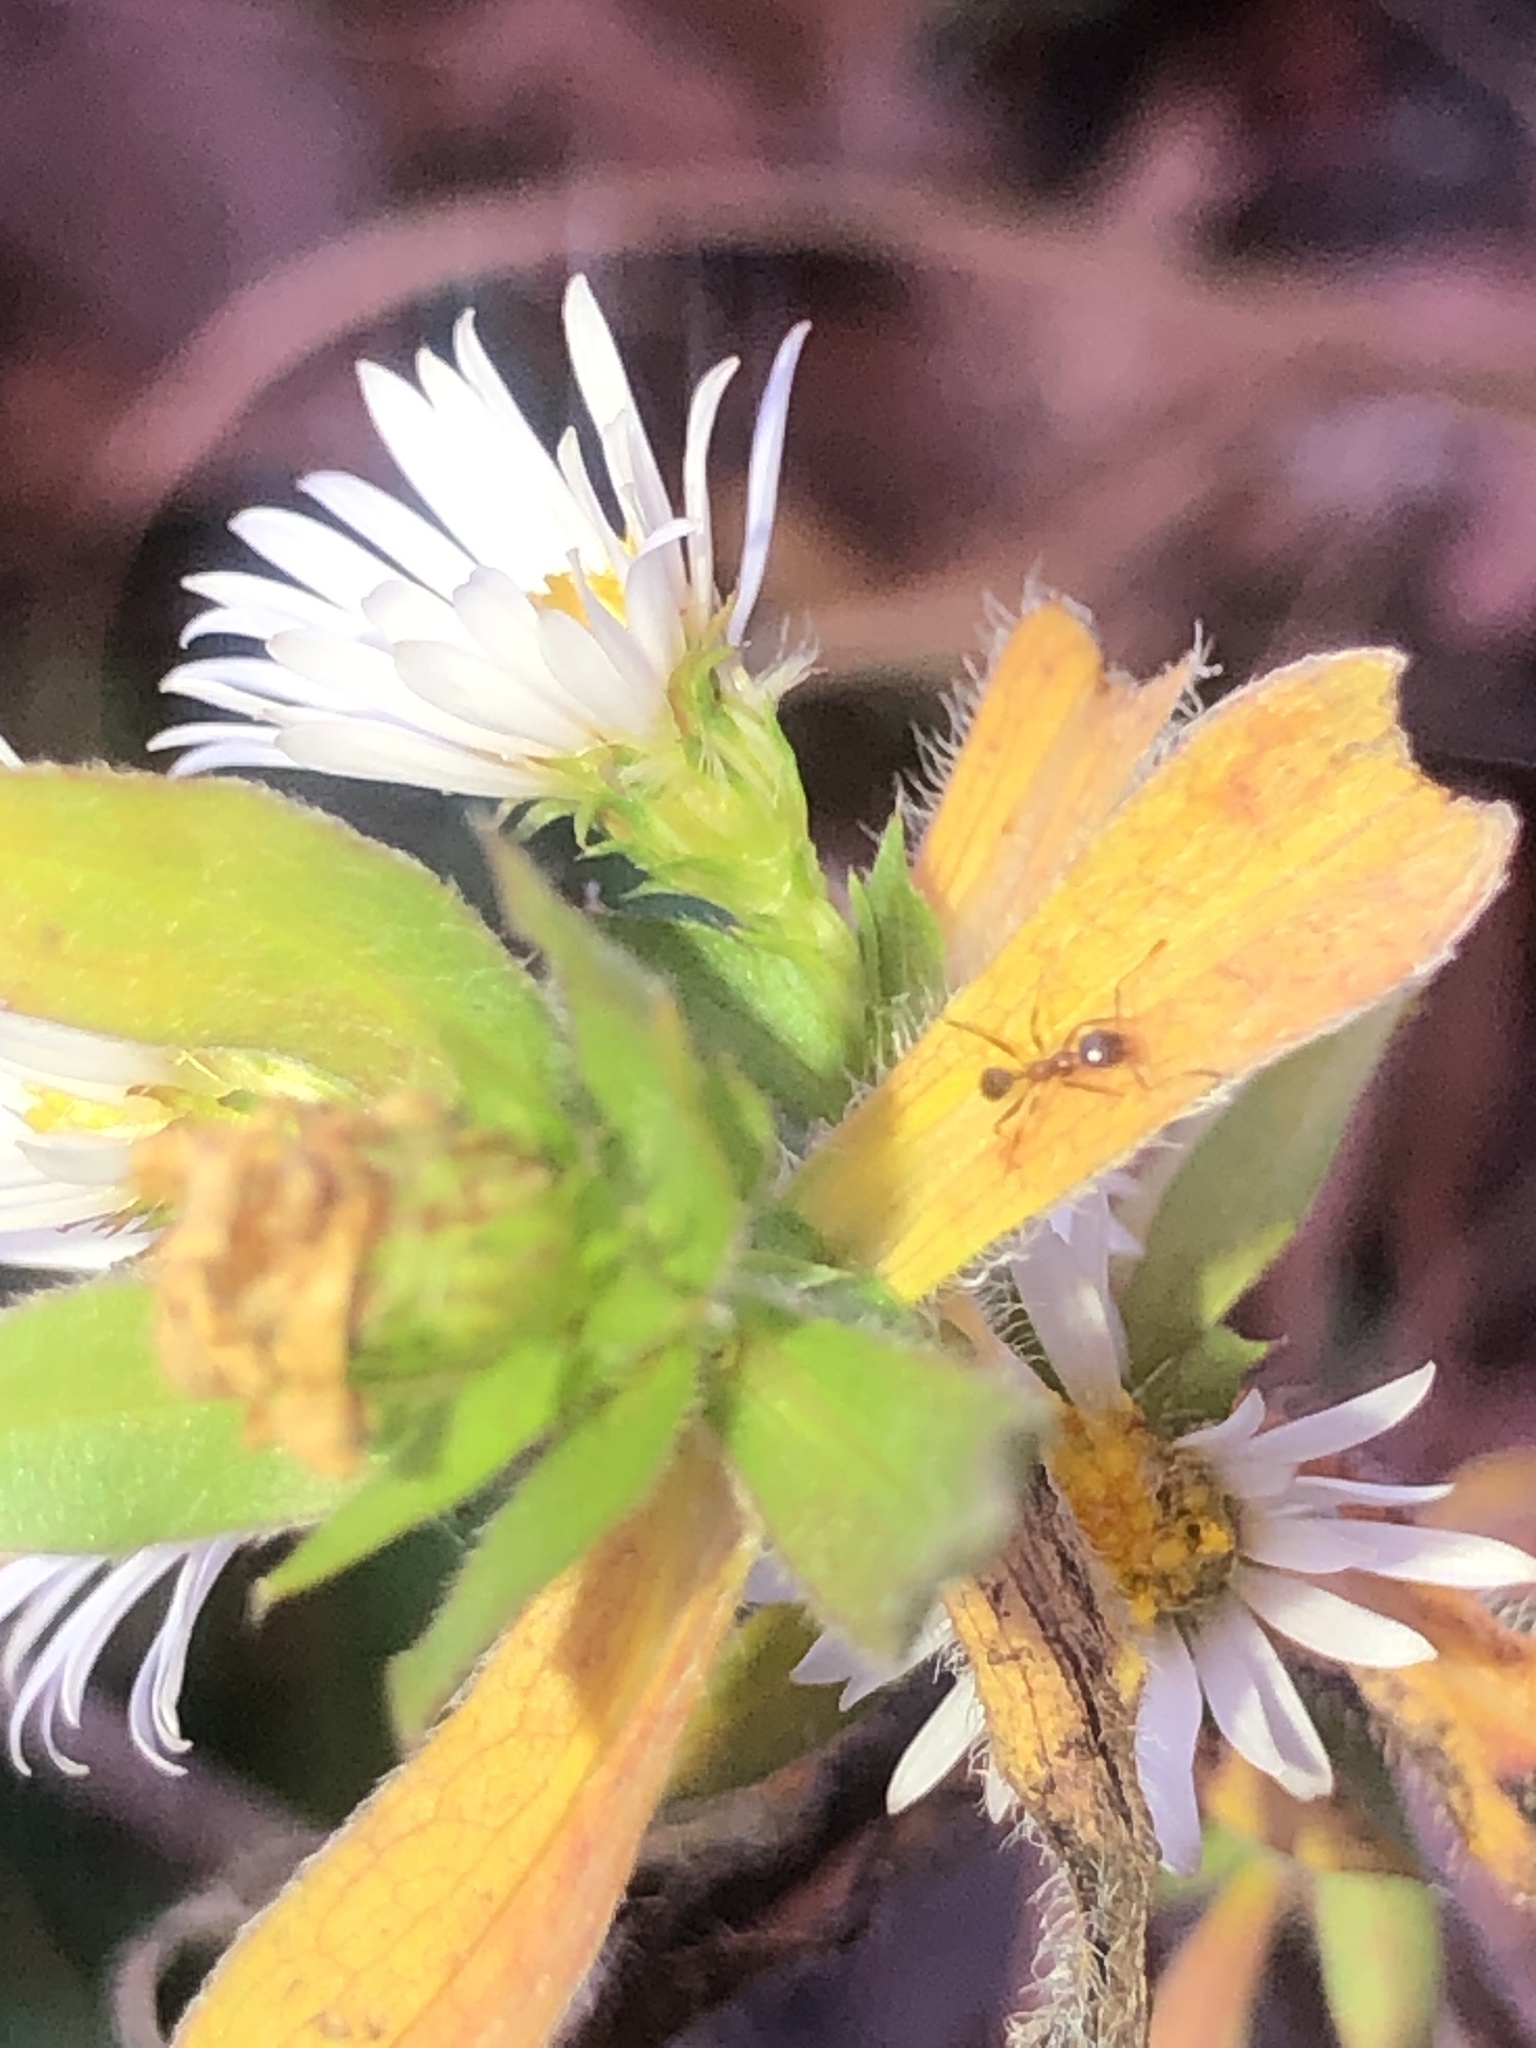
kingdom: Animalia
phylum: Arthropoda
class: Insecta
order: Hymenoptera
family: Formicidae
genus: Pheidole
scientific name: Pheidole dentata
